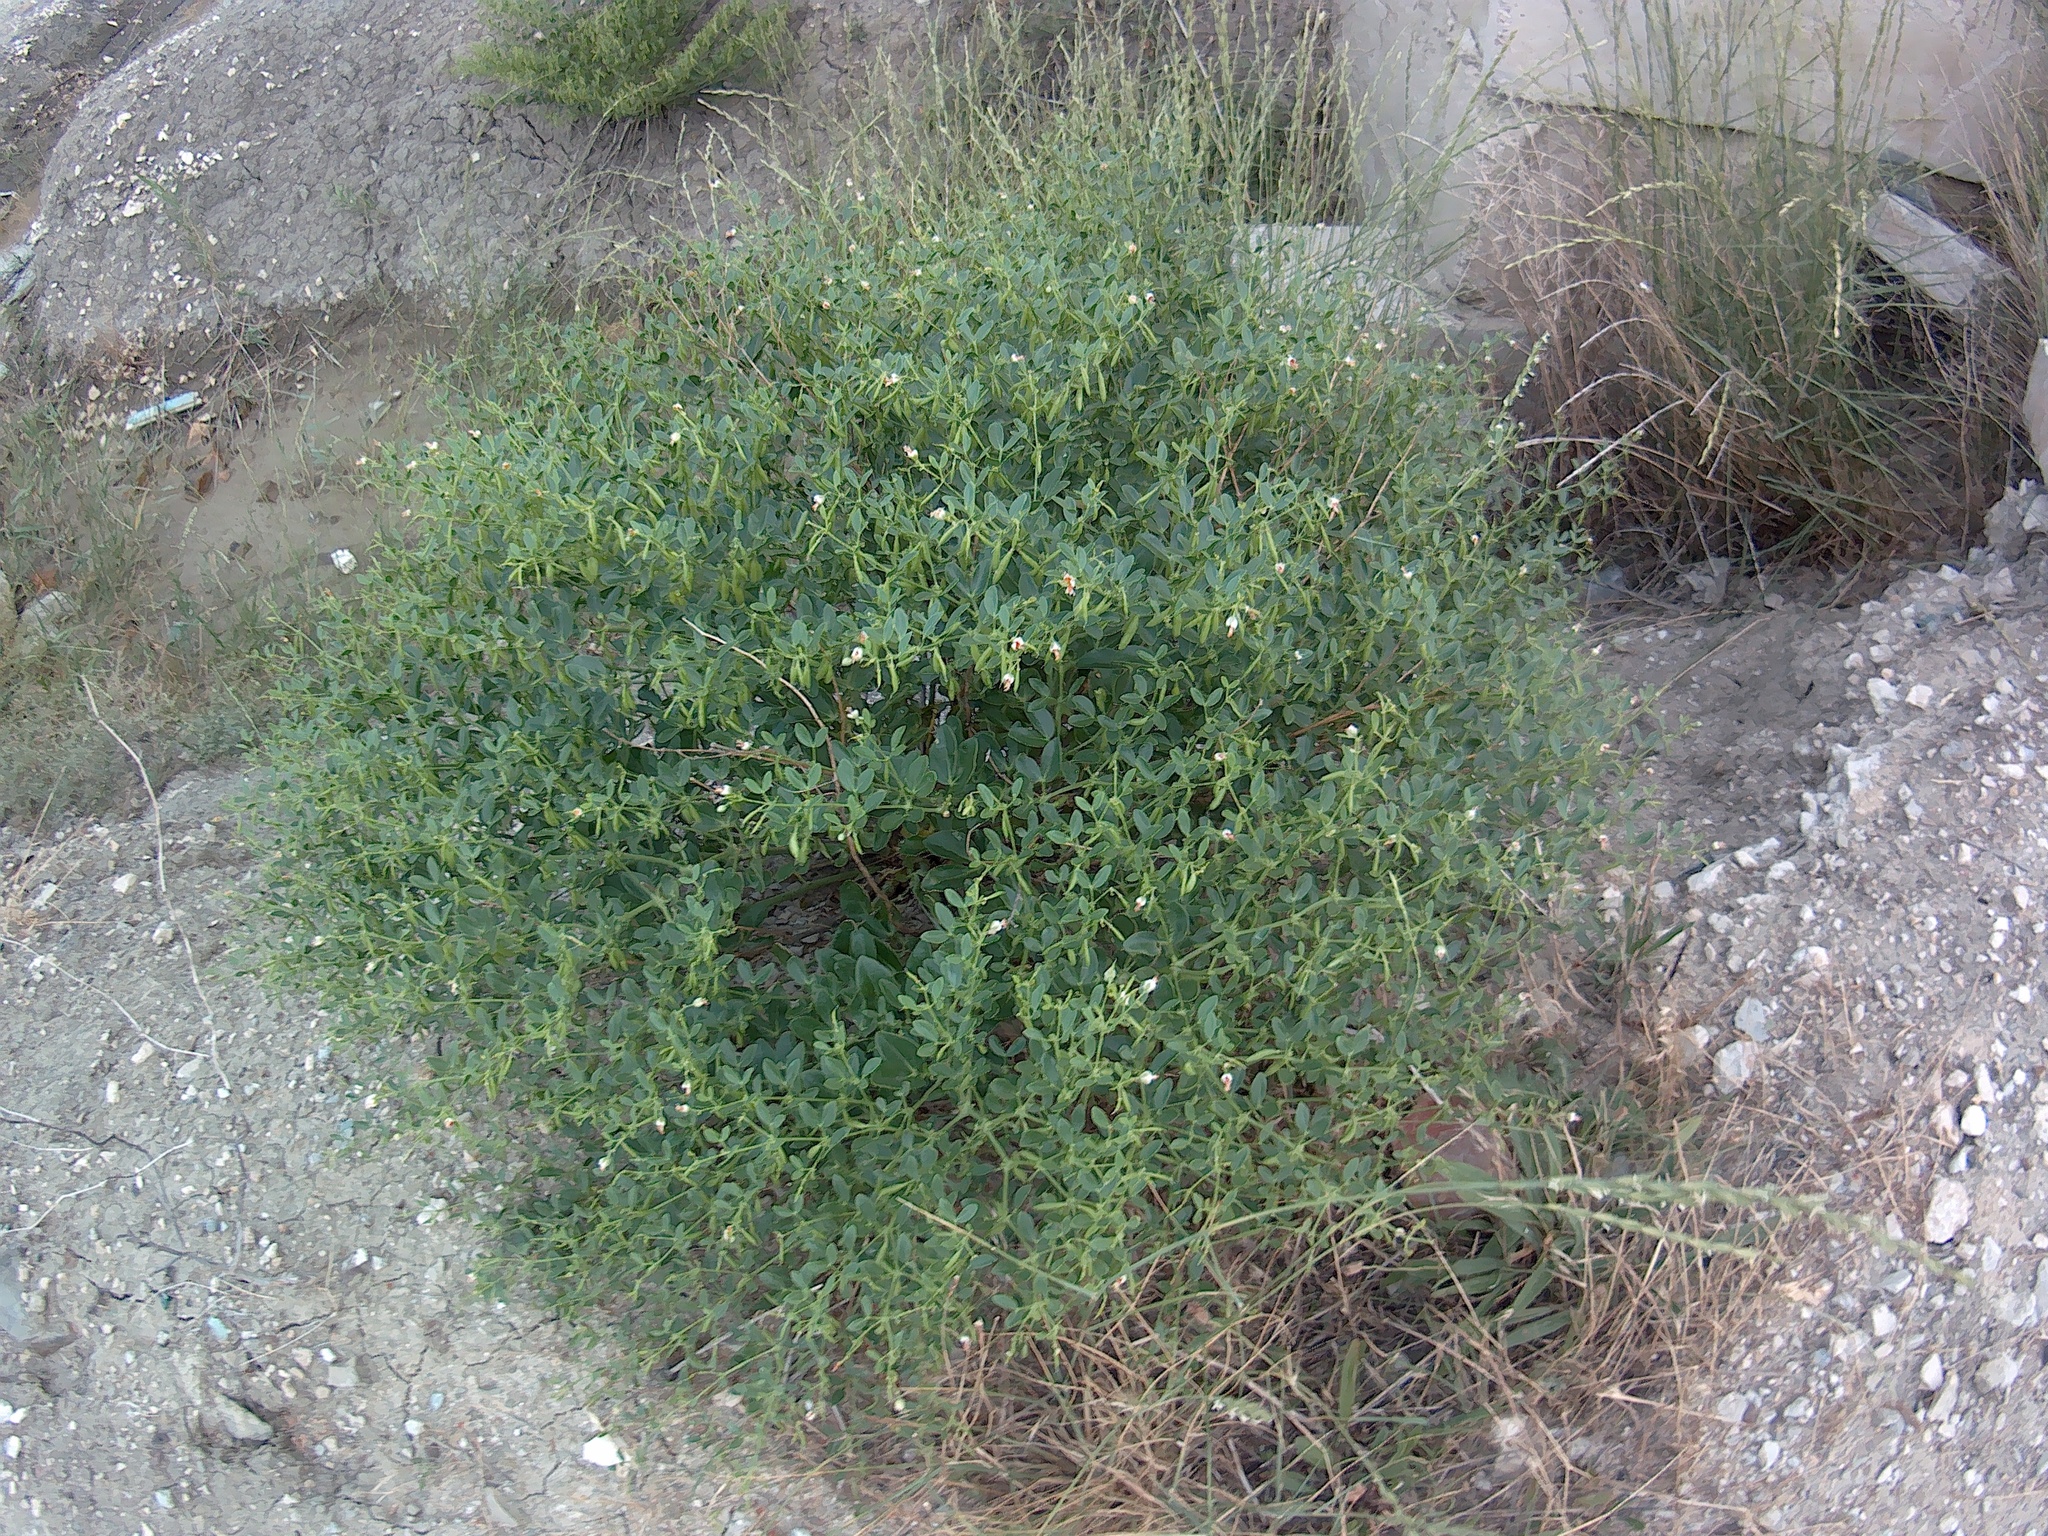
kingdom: Plantae
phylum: Tracheophyta
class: Magnoliopsida
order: Zygophyllales
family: Zygophyllaceae
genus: Zygophyllum
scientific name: Zygophyllum fabago
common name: Syrian beancaper
